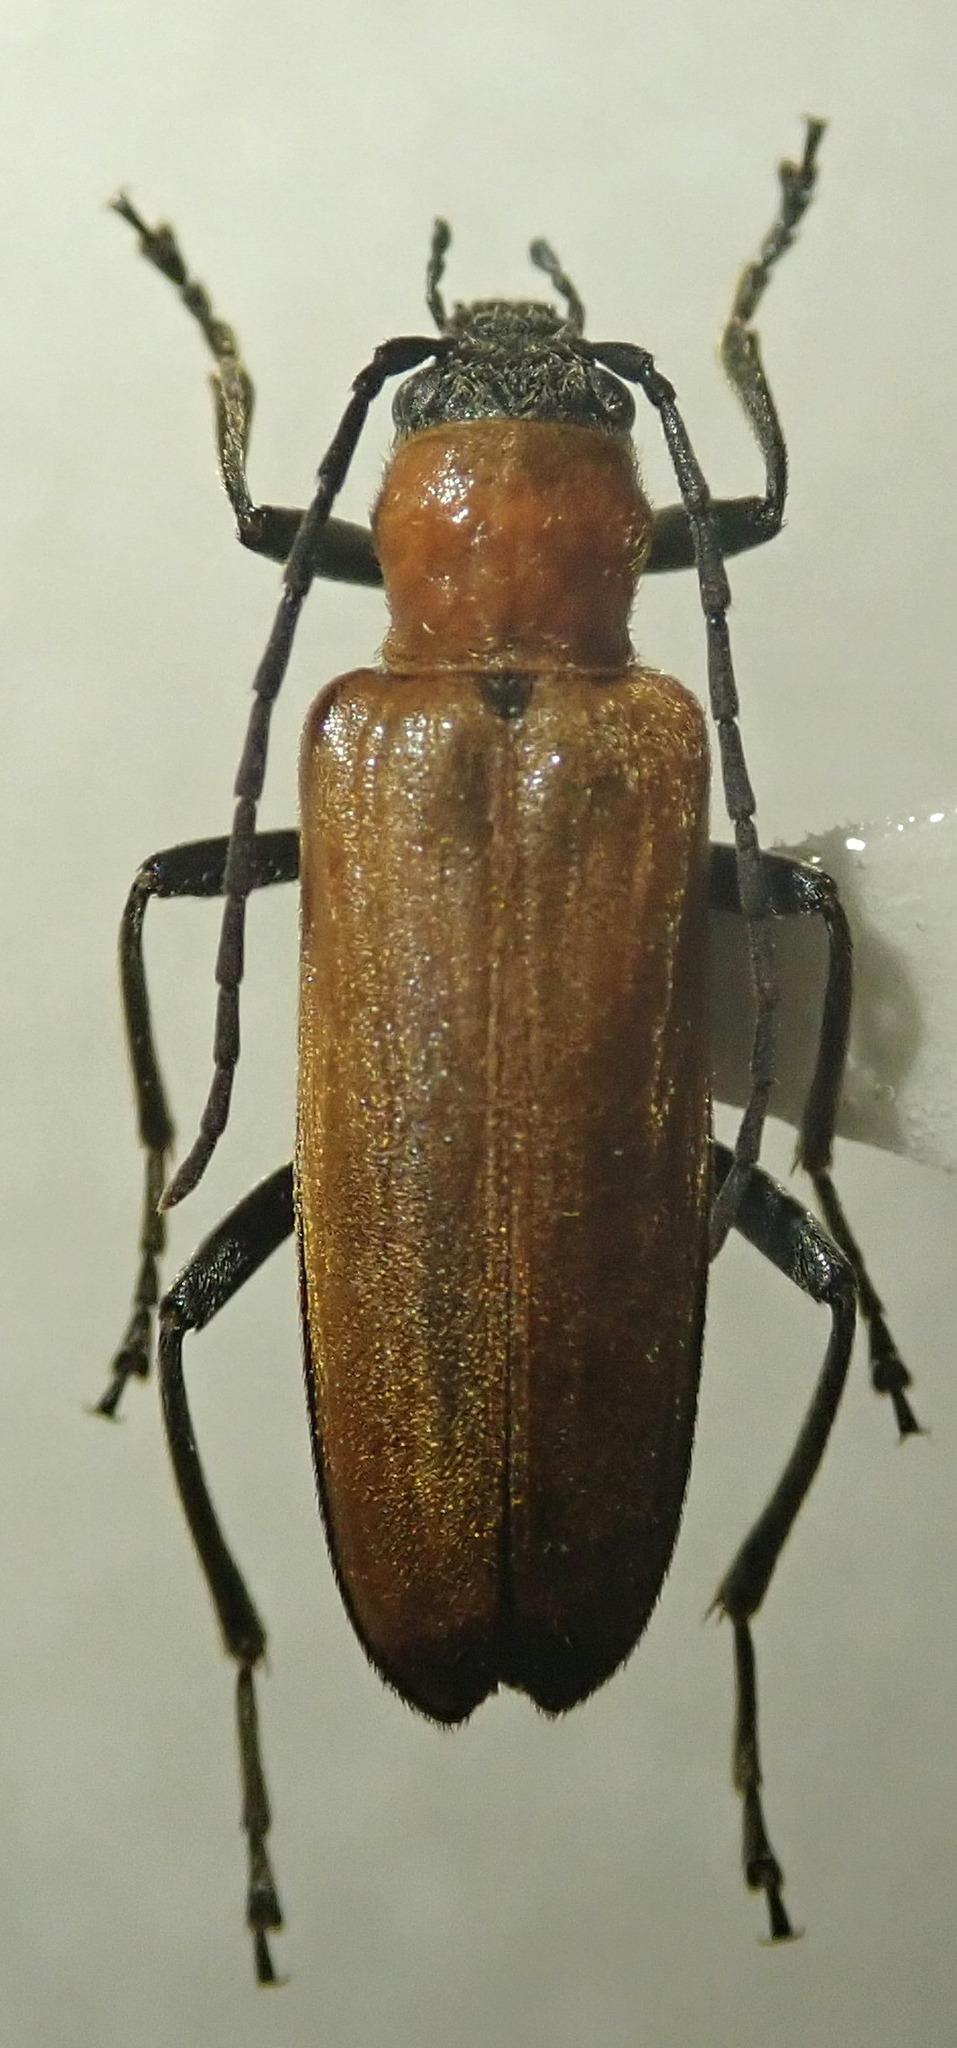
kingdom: Animalia
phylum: Arthropoda
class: Insecta
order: Coleoptera
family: Oedemeridae
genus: Anogcodes
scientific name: Anogcodes melanurus
